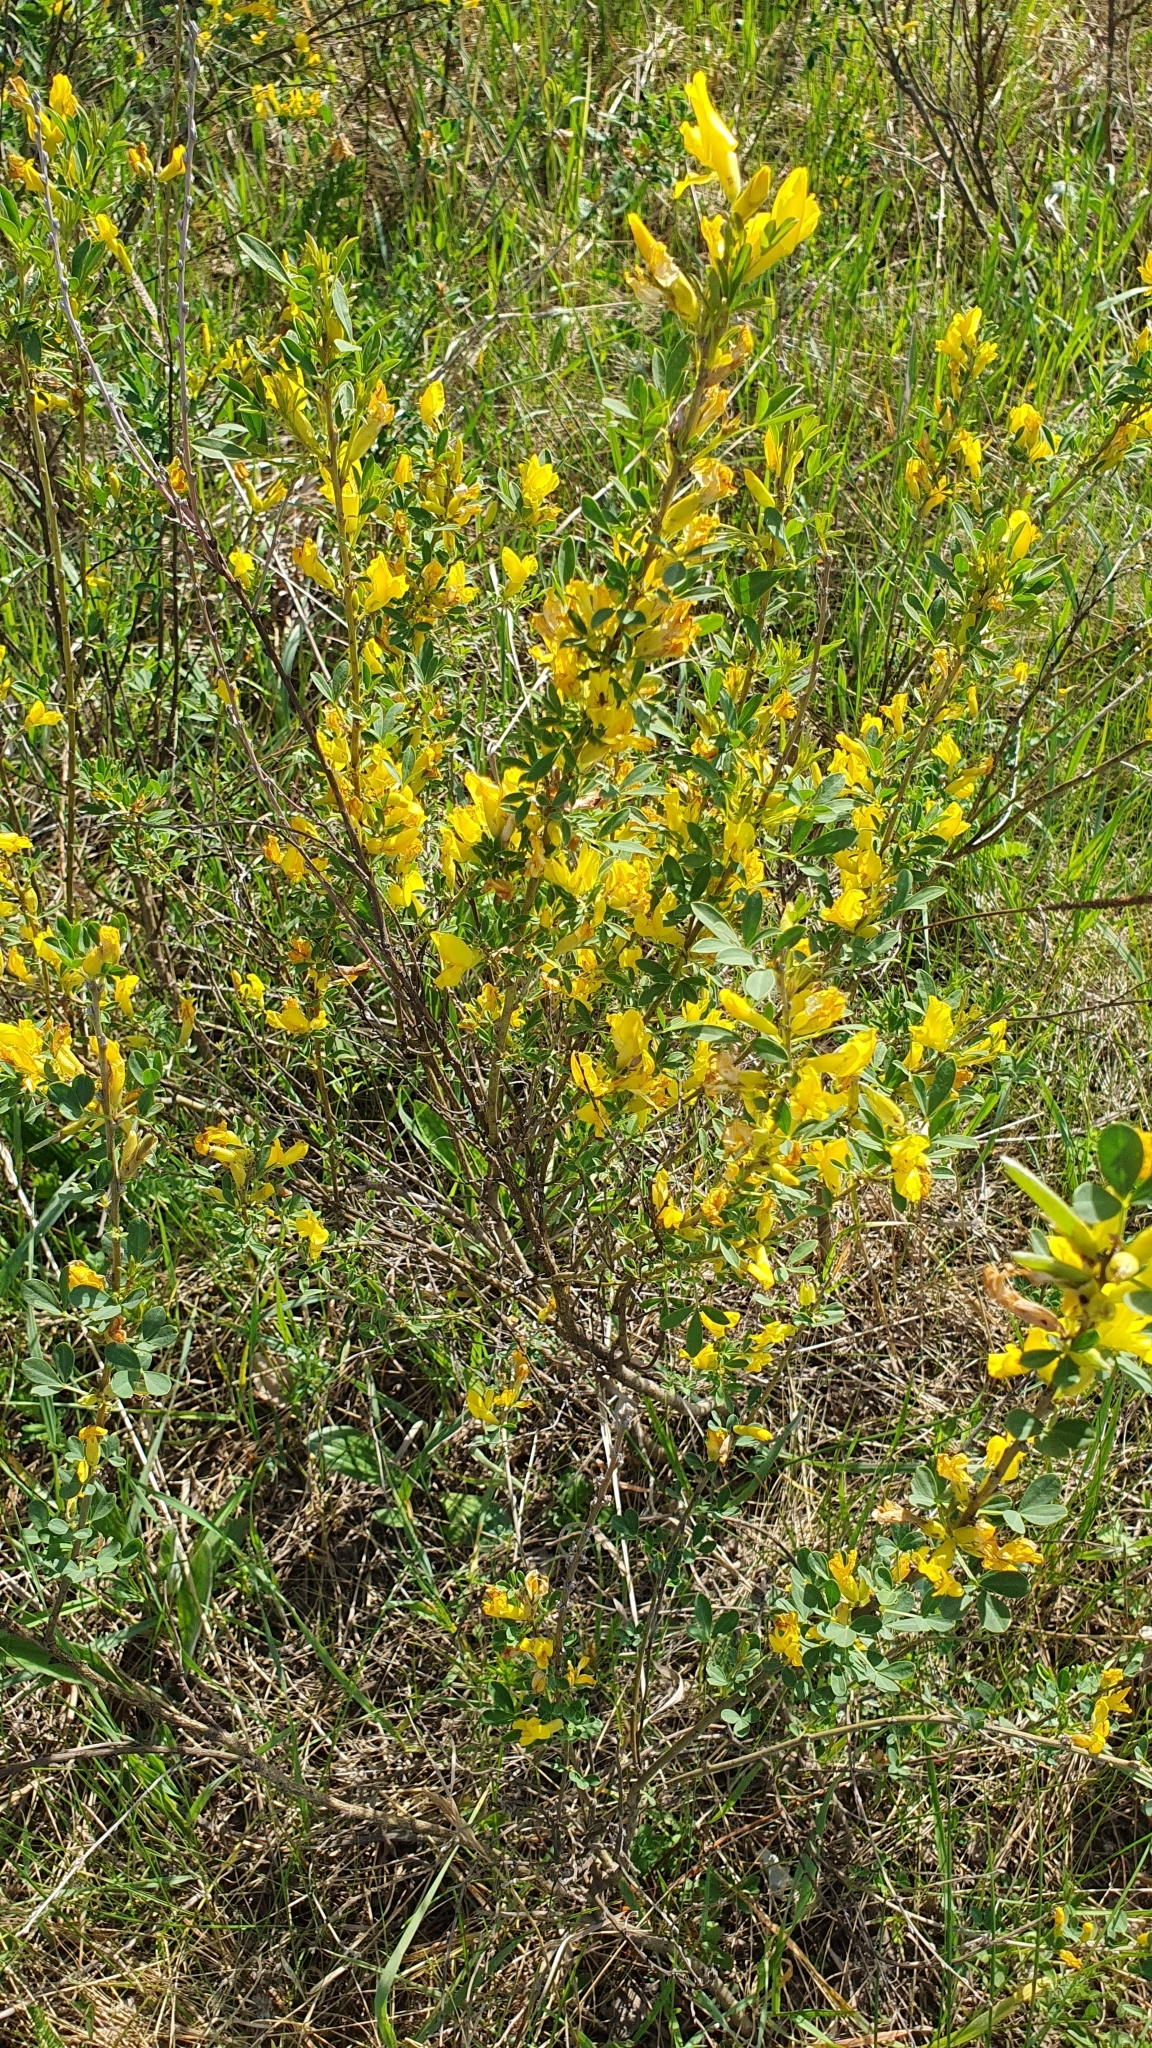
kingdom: Plantae
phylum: Tracheophyta
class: Magnoliopsida
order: Fabales
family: Fabaceae
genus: Chamaecytisus
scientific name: Chamaecytisus ruthenicus
